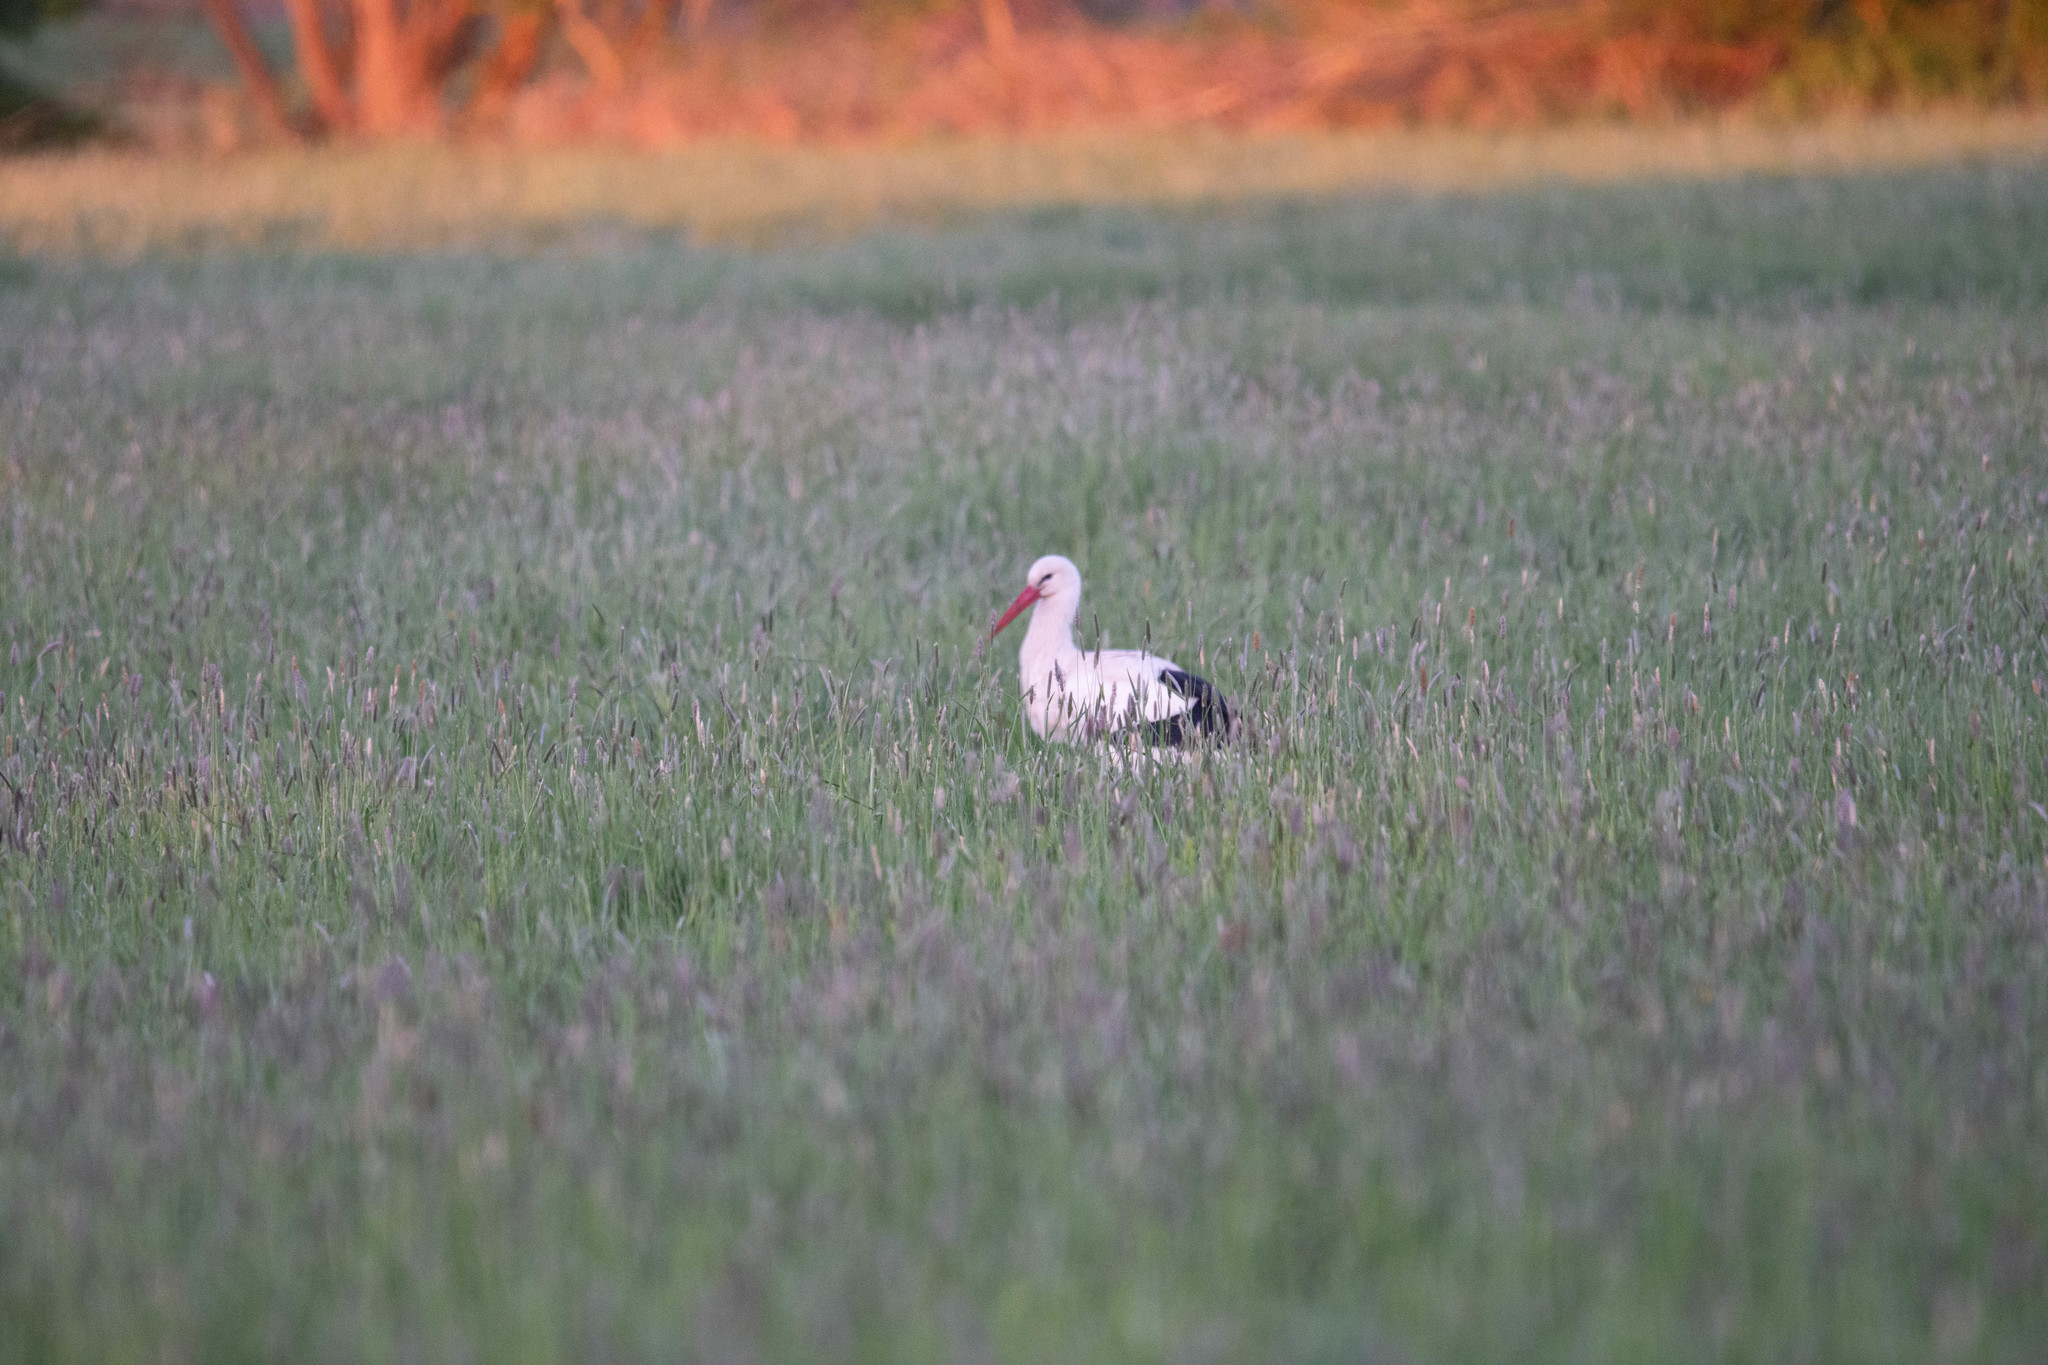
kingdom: Animalia
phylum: Chordata
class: Aves
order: Ciconiiformes
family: Ciconiidae
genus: Ciconia
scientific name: Ciconia ciconia
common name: White stork
